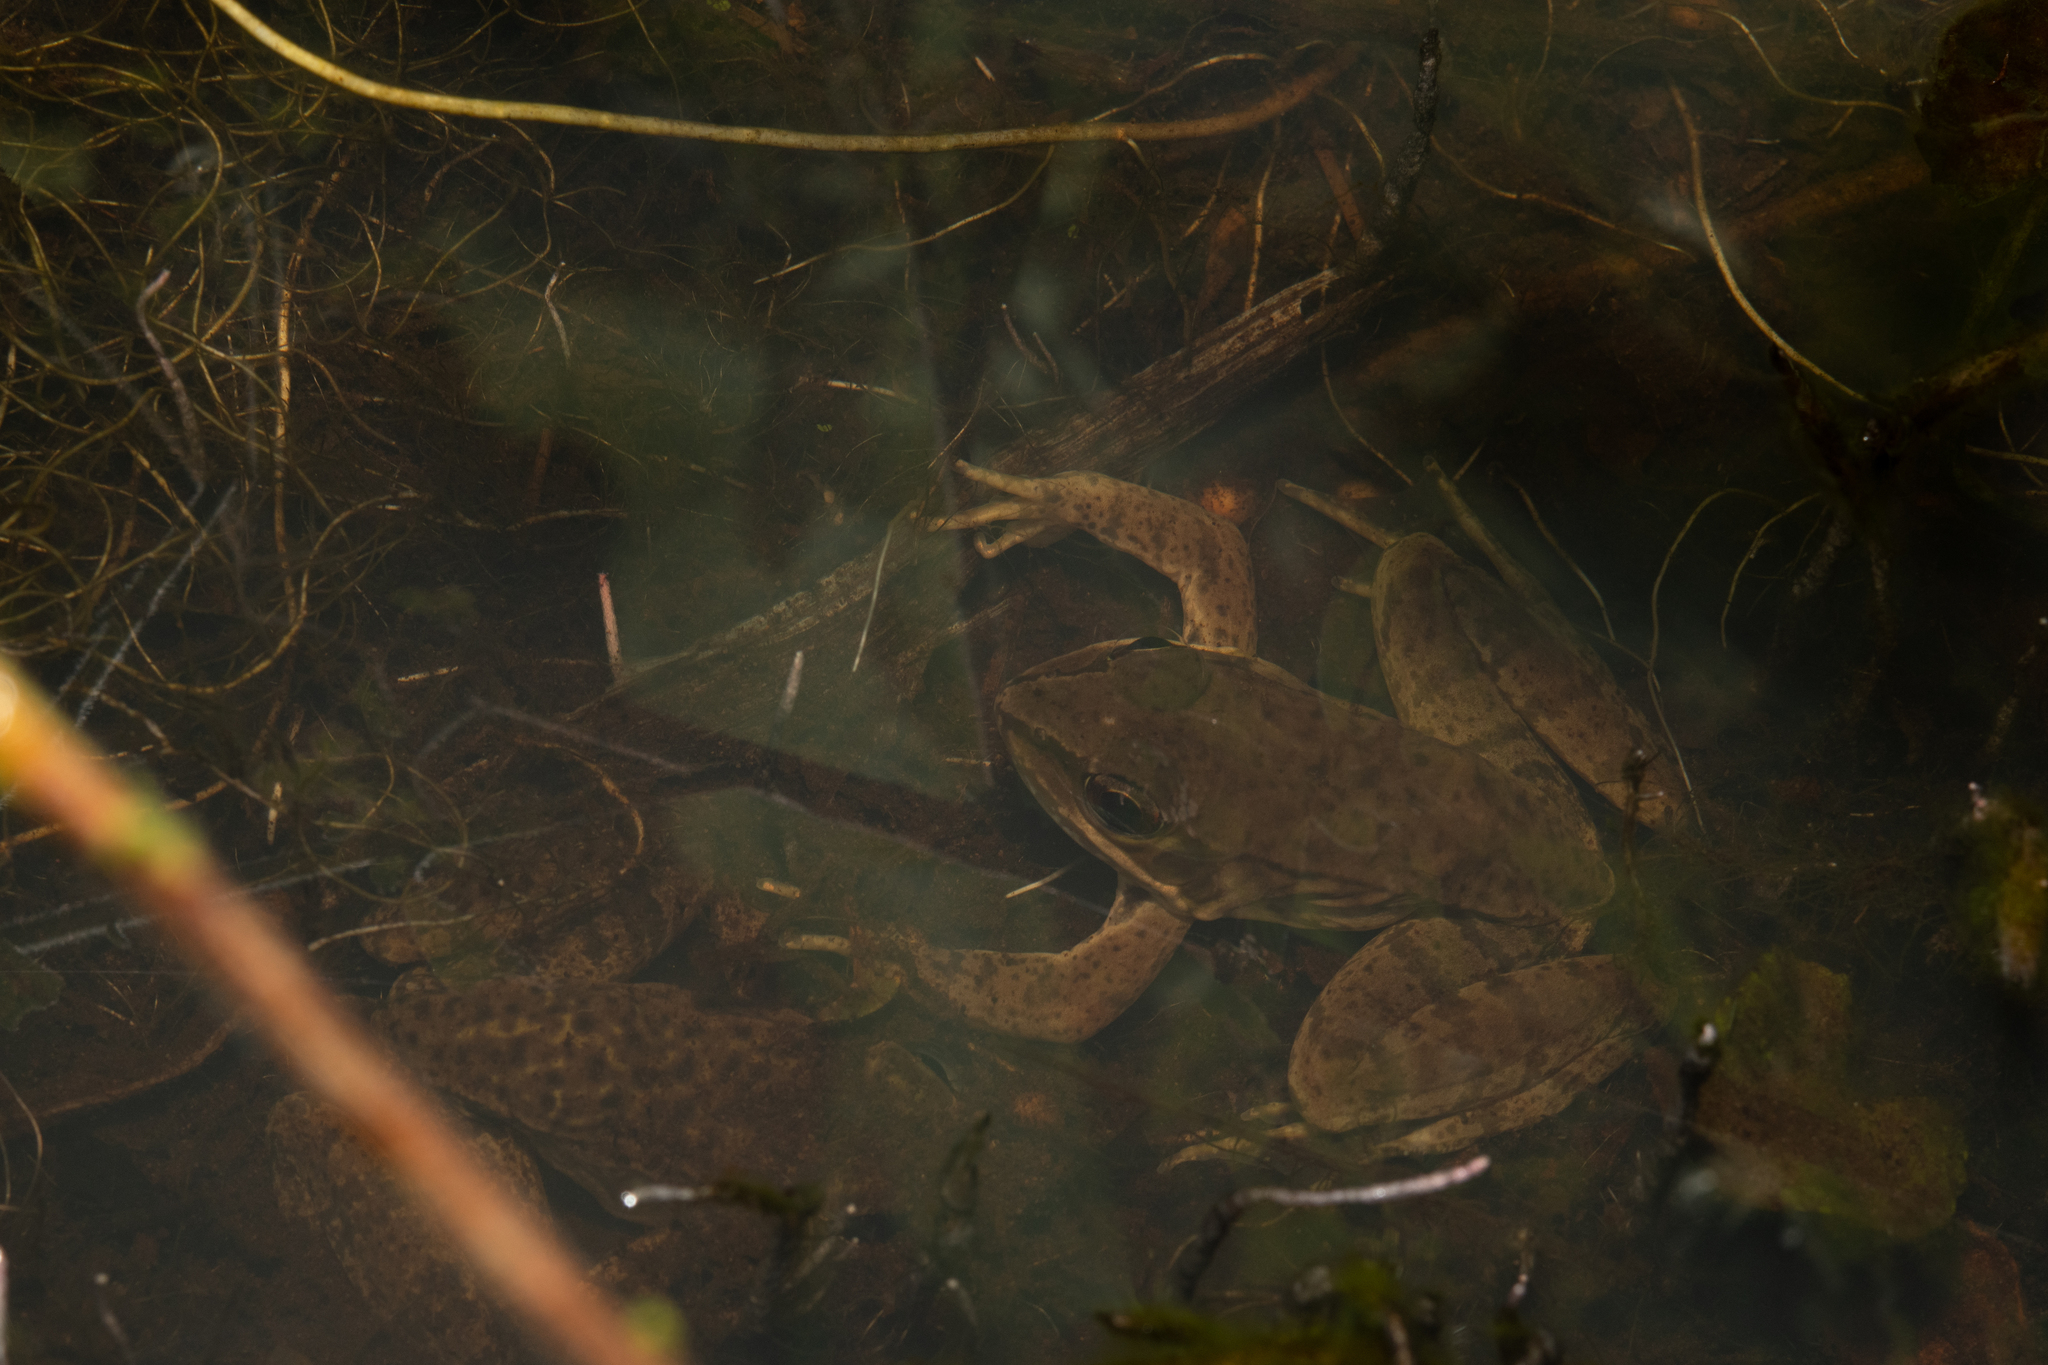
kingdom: Animalia
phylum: Chordata
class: Amphibia
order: Anura
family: Ranidae
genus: Lithobates
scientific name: Lithobates maculatus
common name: Highland frog
